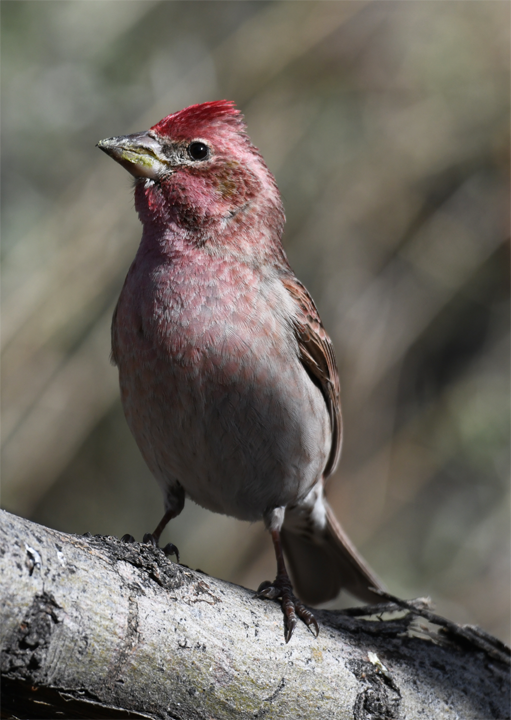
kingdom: Animalia
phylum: Chordata
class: Aves
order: Passeriformes
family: Fringillidae
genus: Haemorhous
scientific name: Haemorhous cassinii
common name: Cassin's finch
